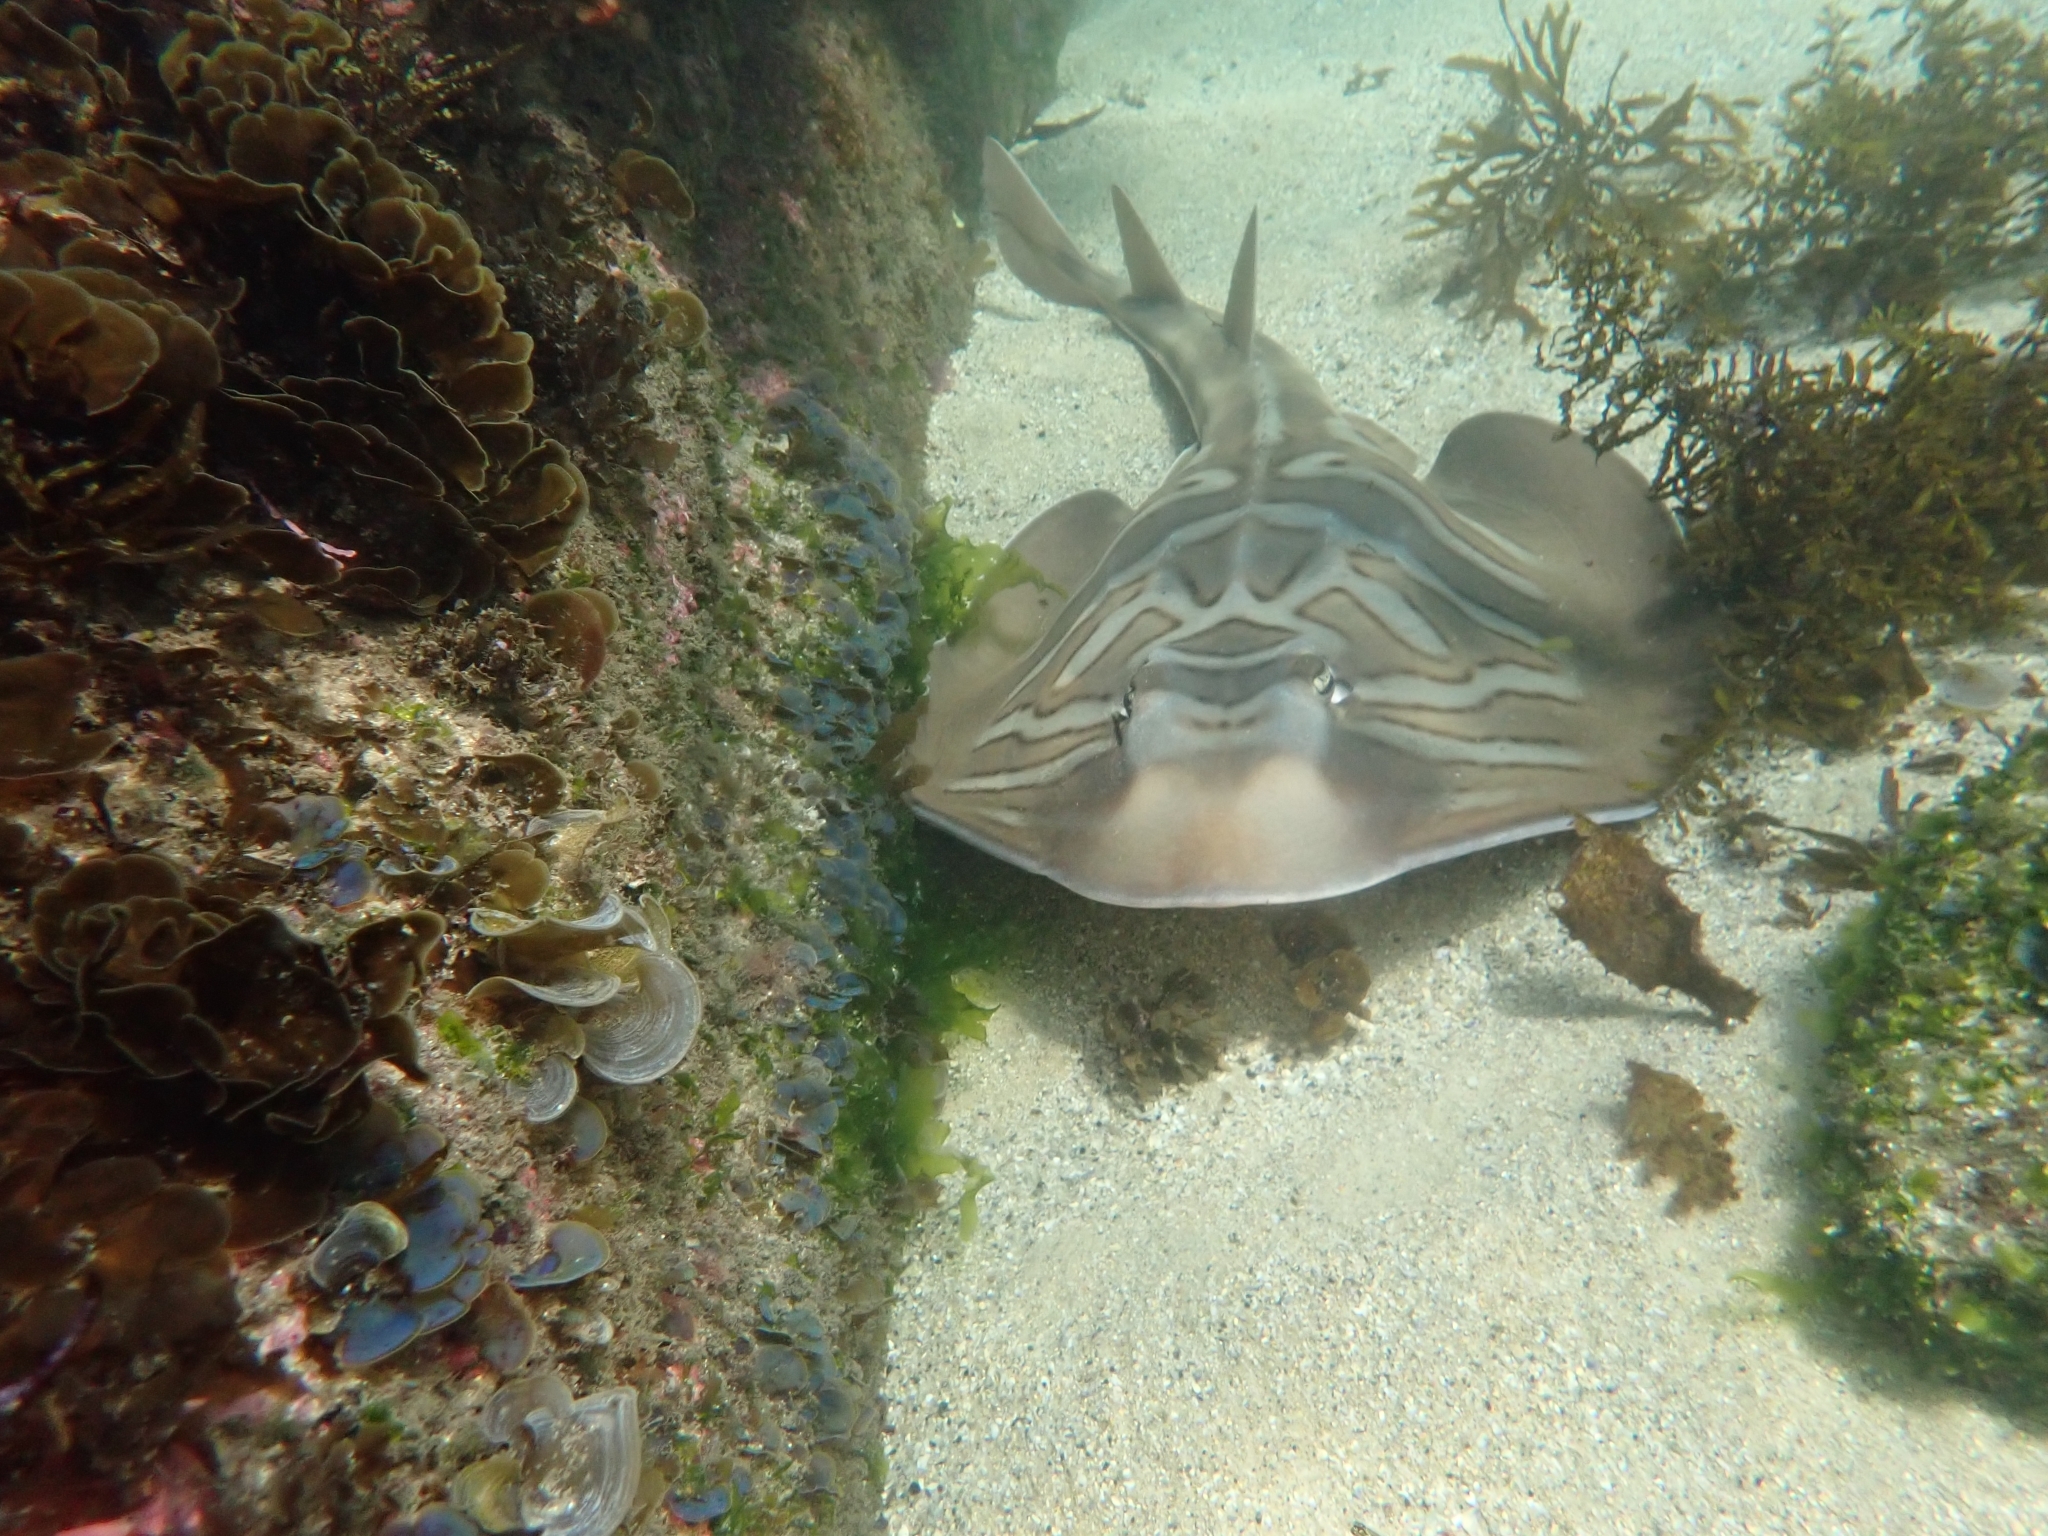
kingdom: Animalia
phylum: Chordata
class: Elasmobranchii
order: Rhinopristiformes
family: Rhinobatidae
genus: Trygonorrhina
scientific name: Trygonorrhina fasciata
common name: Southern fiddler
